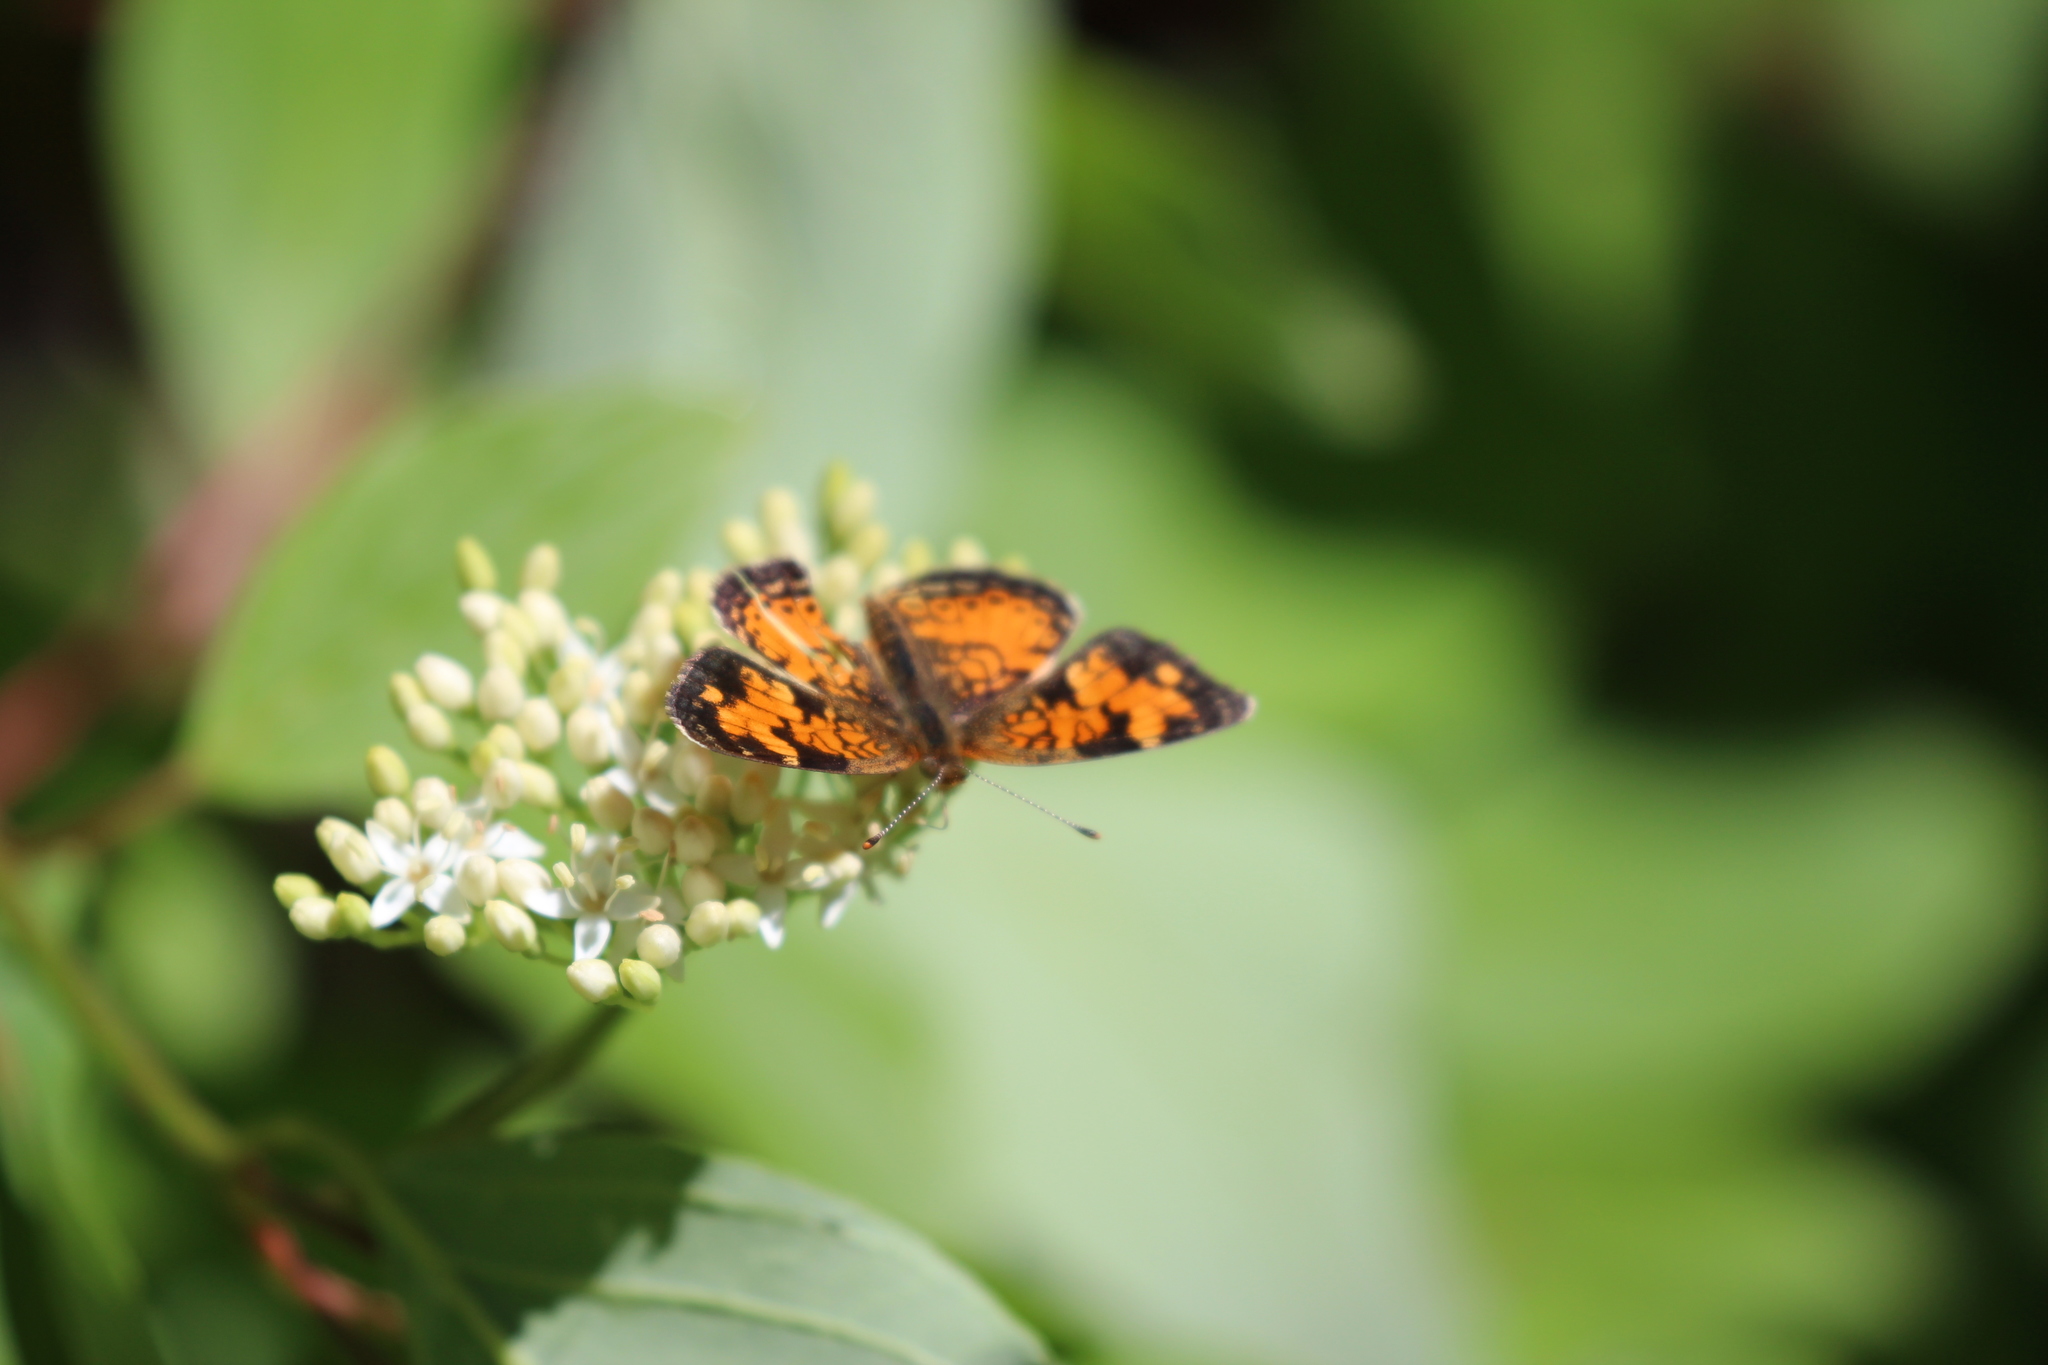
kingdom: Animalia
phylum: Arthropoda
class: Insecta
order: Lepidoptera
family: Nymphalidae
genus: Phyciodes
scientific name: Phyciodes tharos
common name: Pearl crescent
